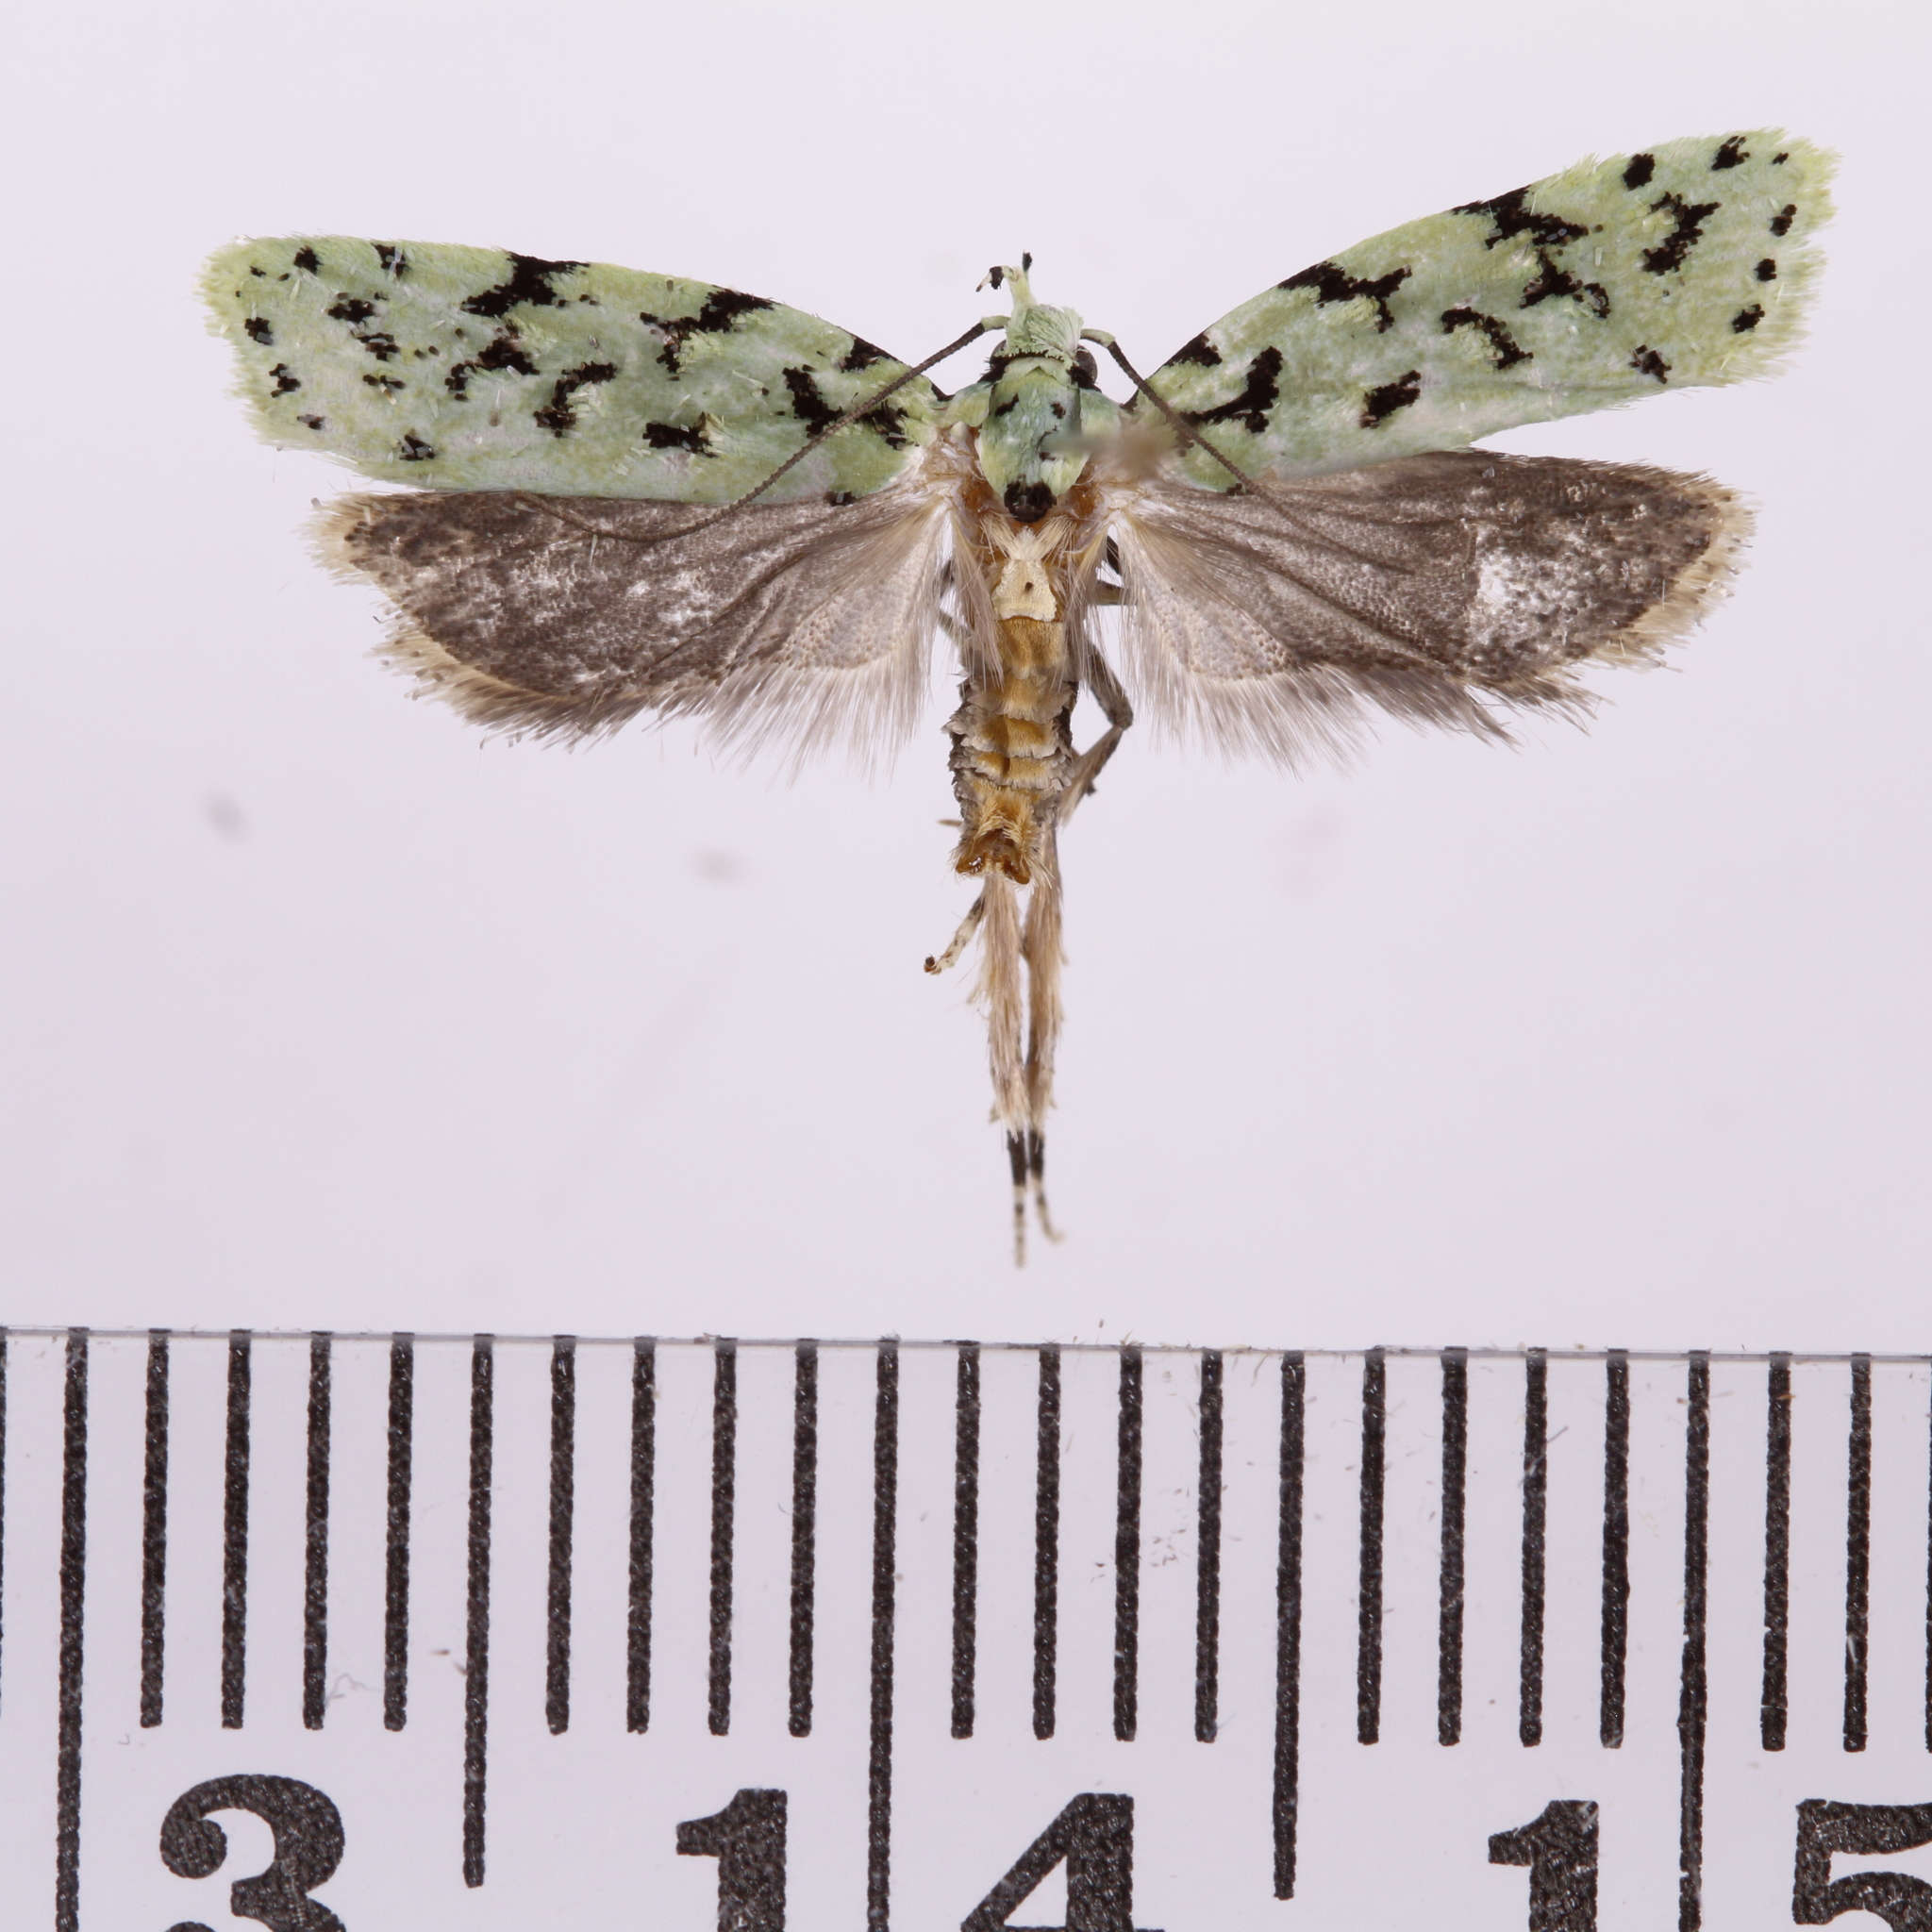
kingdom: Animalia
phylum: Arthropoda
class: Insecta
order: Lepidoptera
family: Oecophoridae
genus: Izatha
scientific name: Izatha peroneanella
